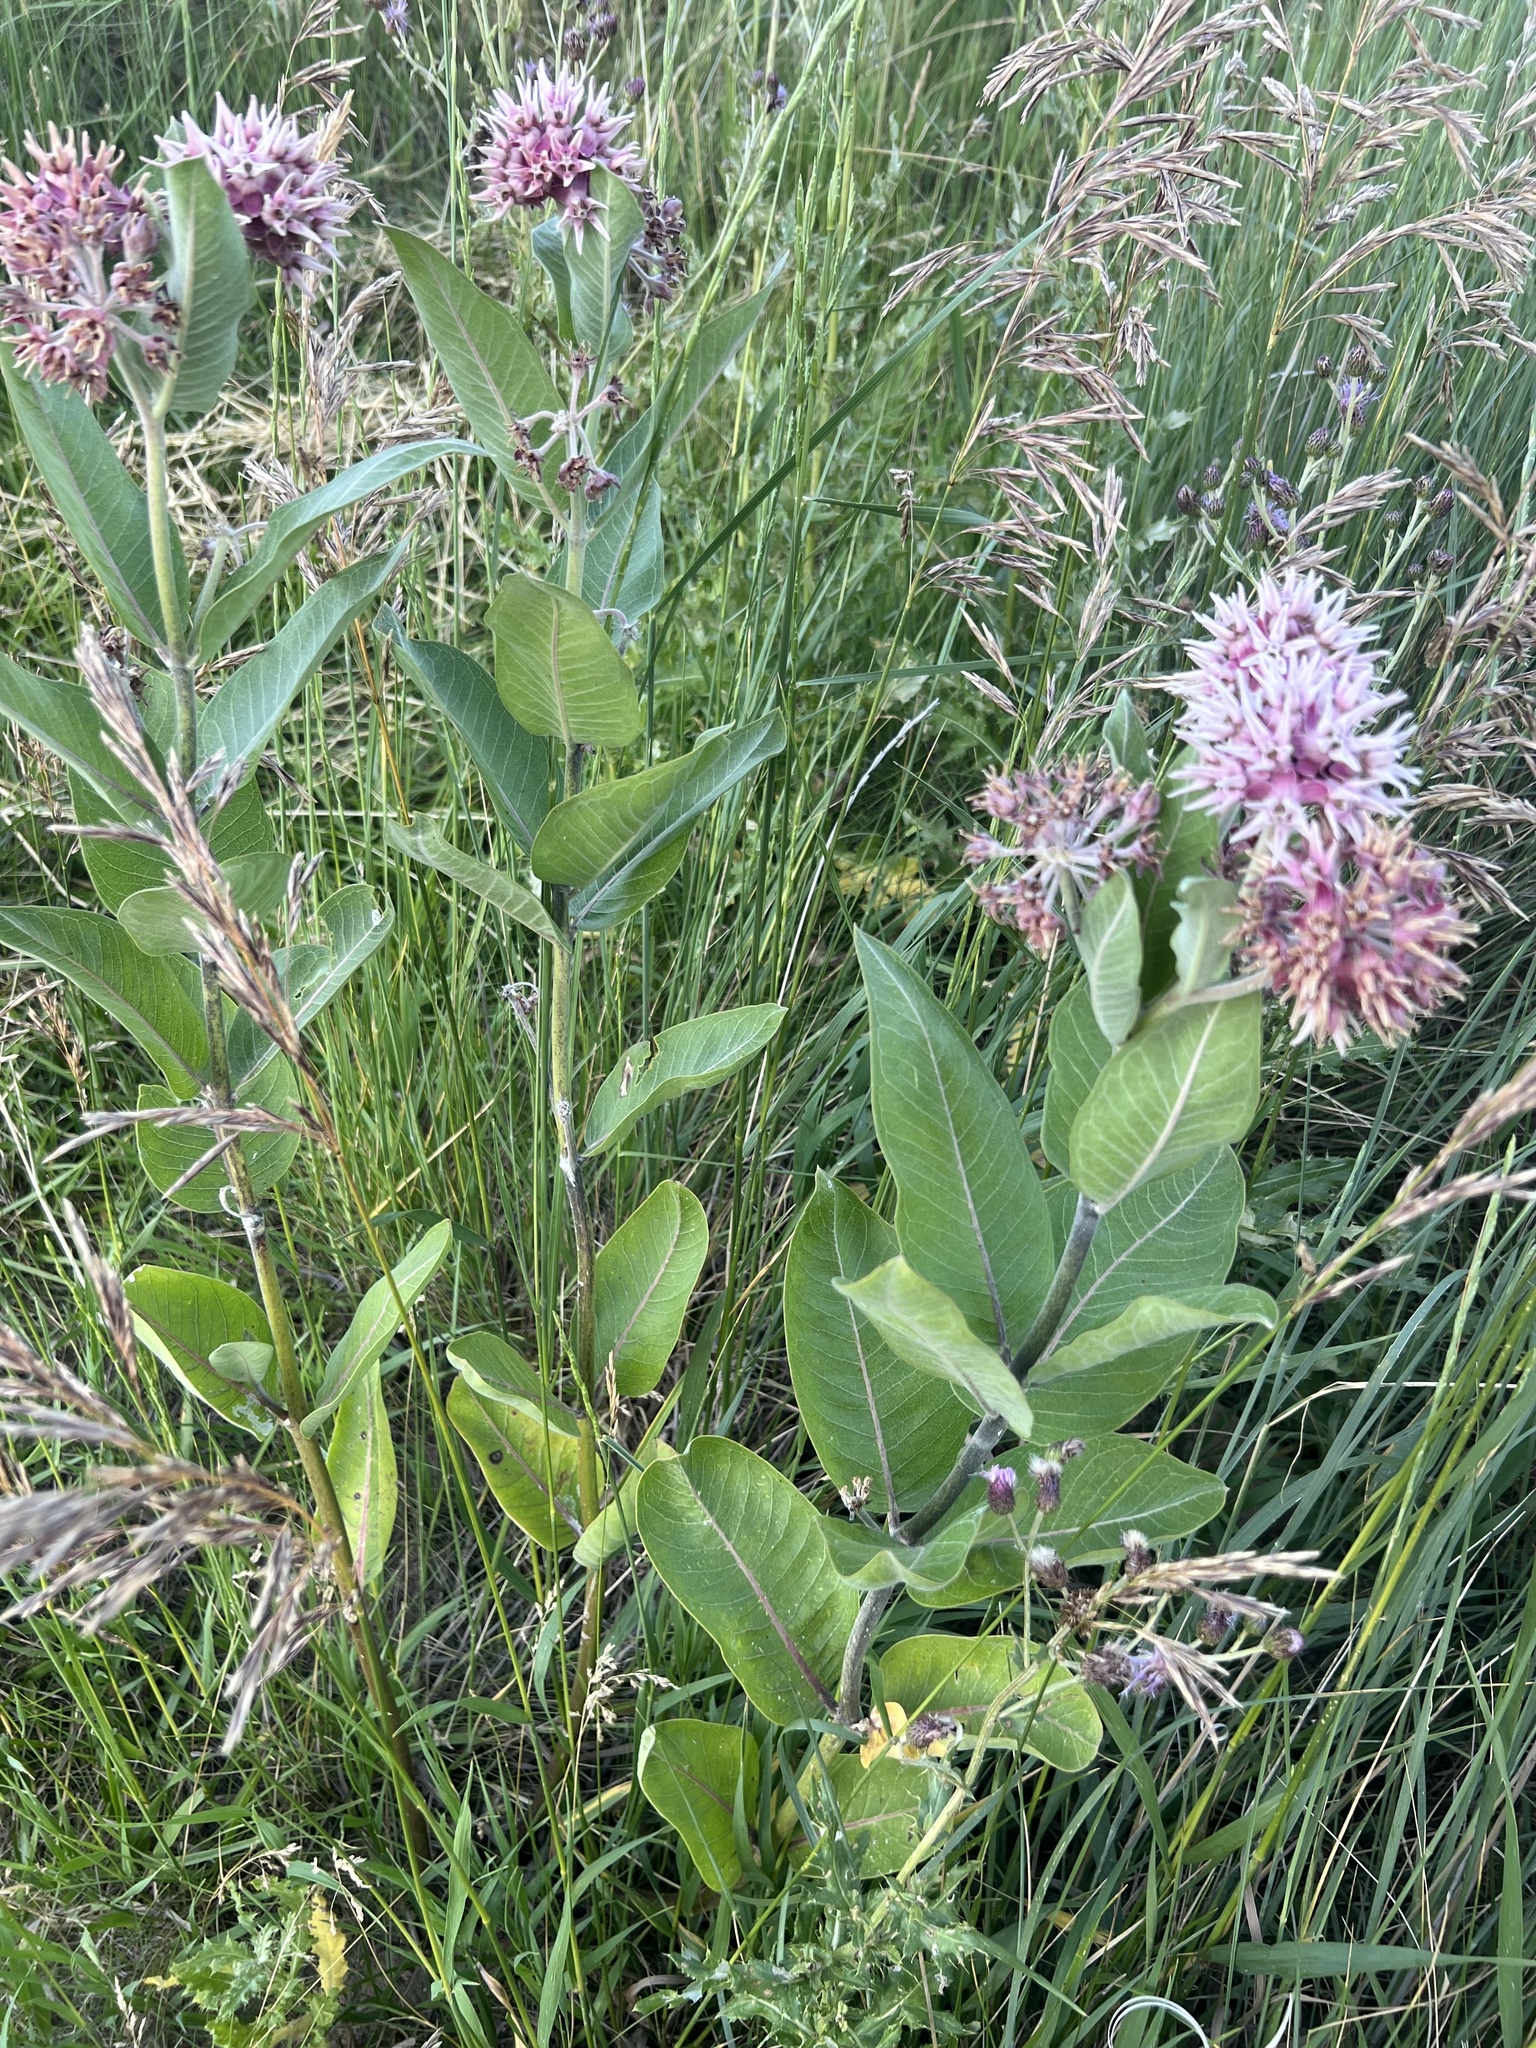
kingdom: Plantae
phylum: Tracheophyta
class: Magnoliopsida
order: Gentianales
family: Apocynaceae
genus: Asclepias
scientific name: Asclepias speciosa
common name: Showy milkweed
